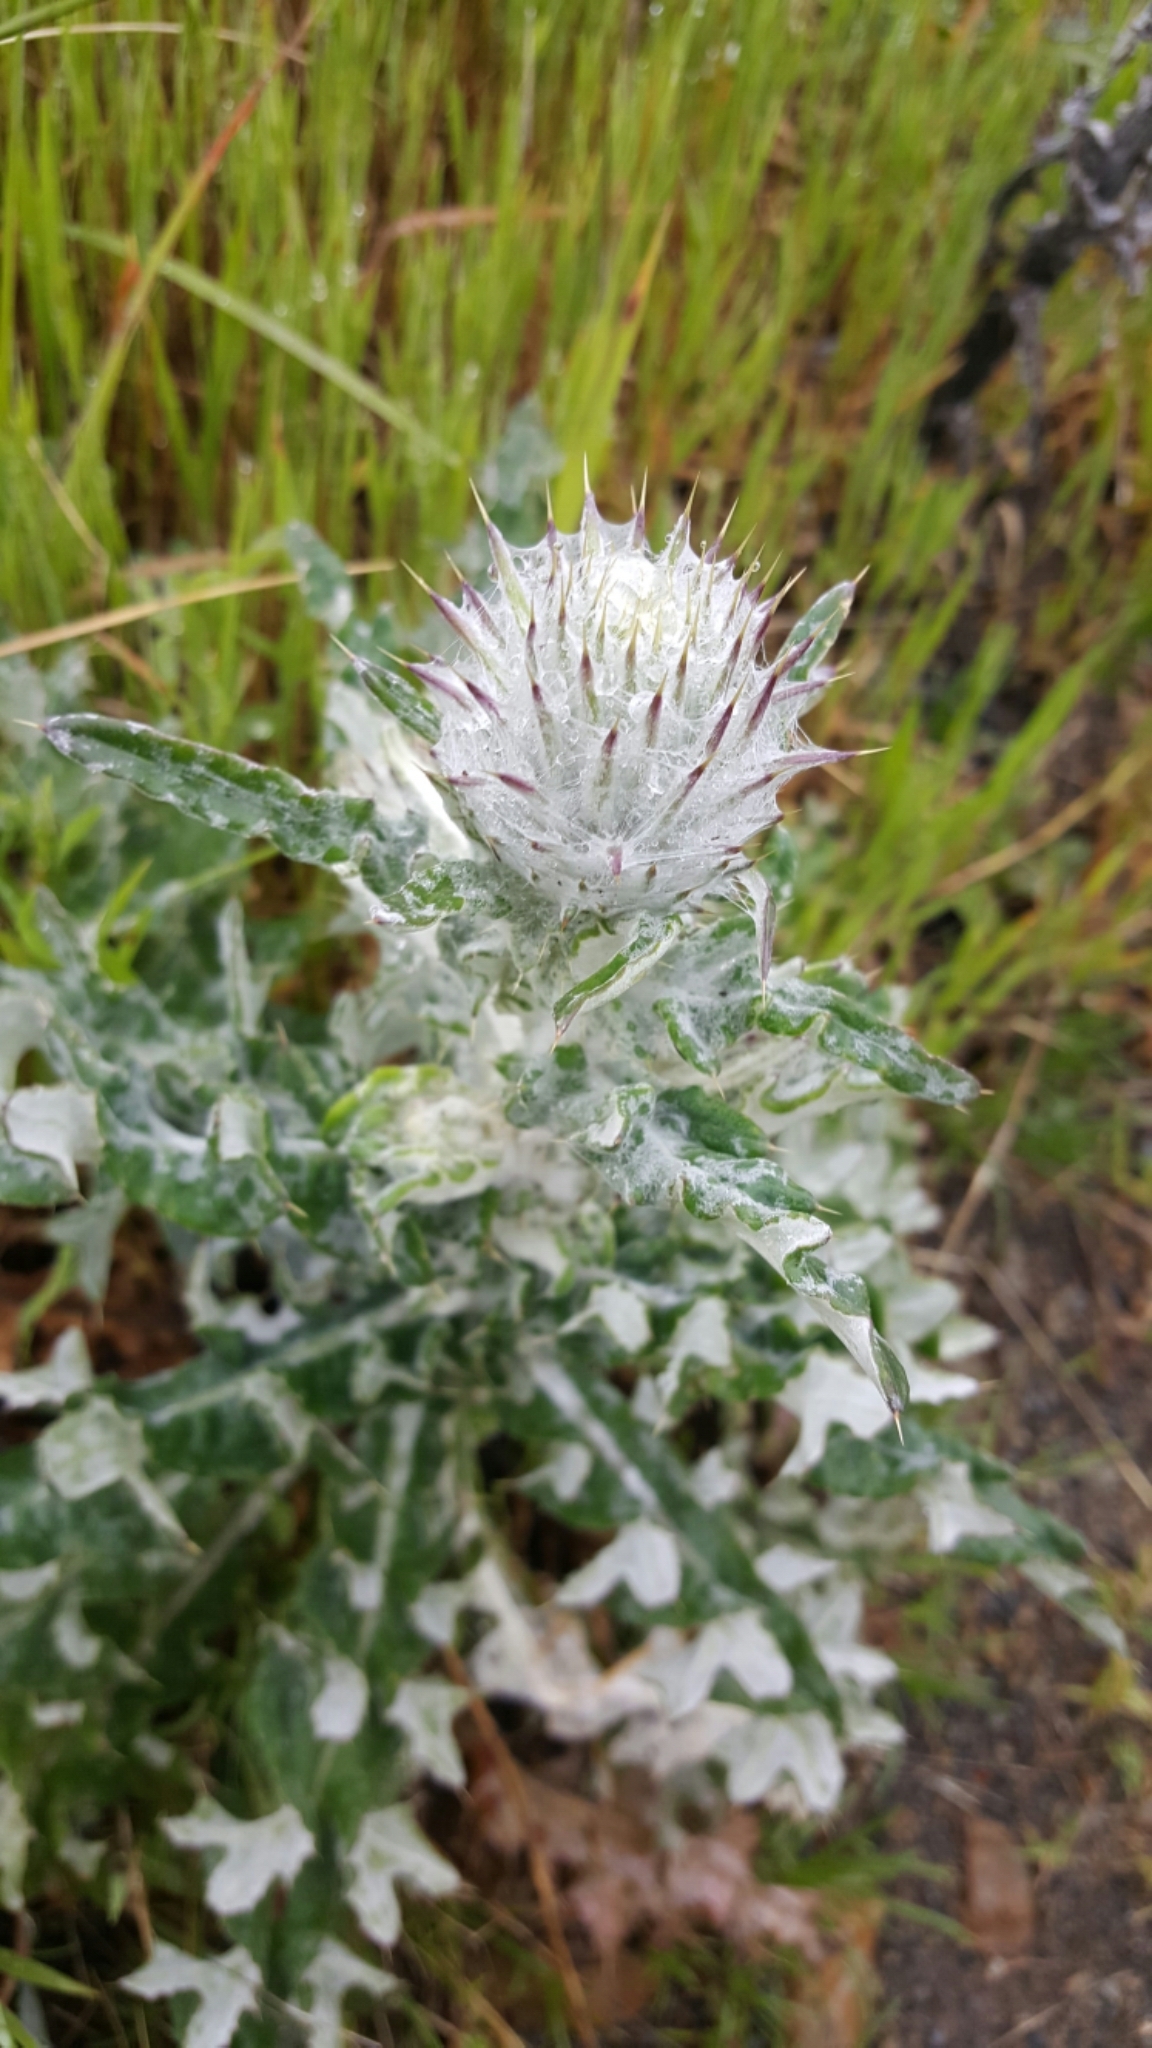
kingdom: Plantae
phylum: Tracheophyta
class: Magnoliopsida
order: Asterales
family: Asteraceae
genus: Cirsium
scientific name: Cirsium occidentale
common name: Western thistle
